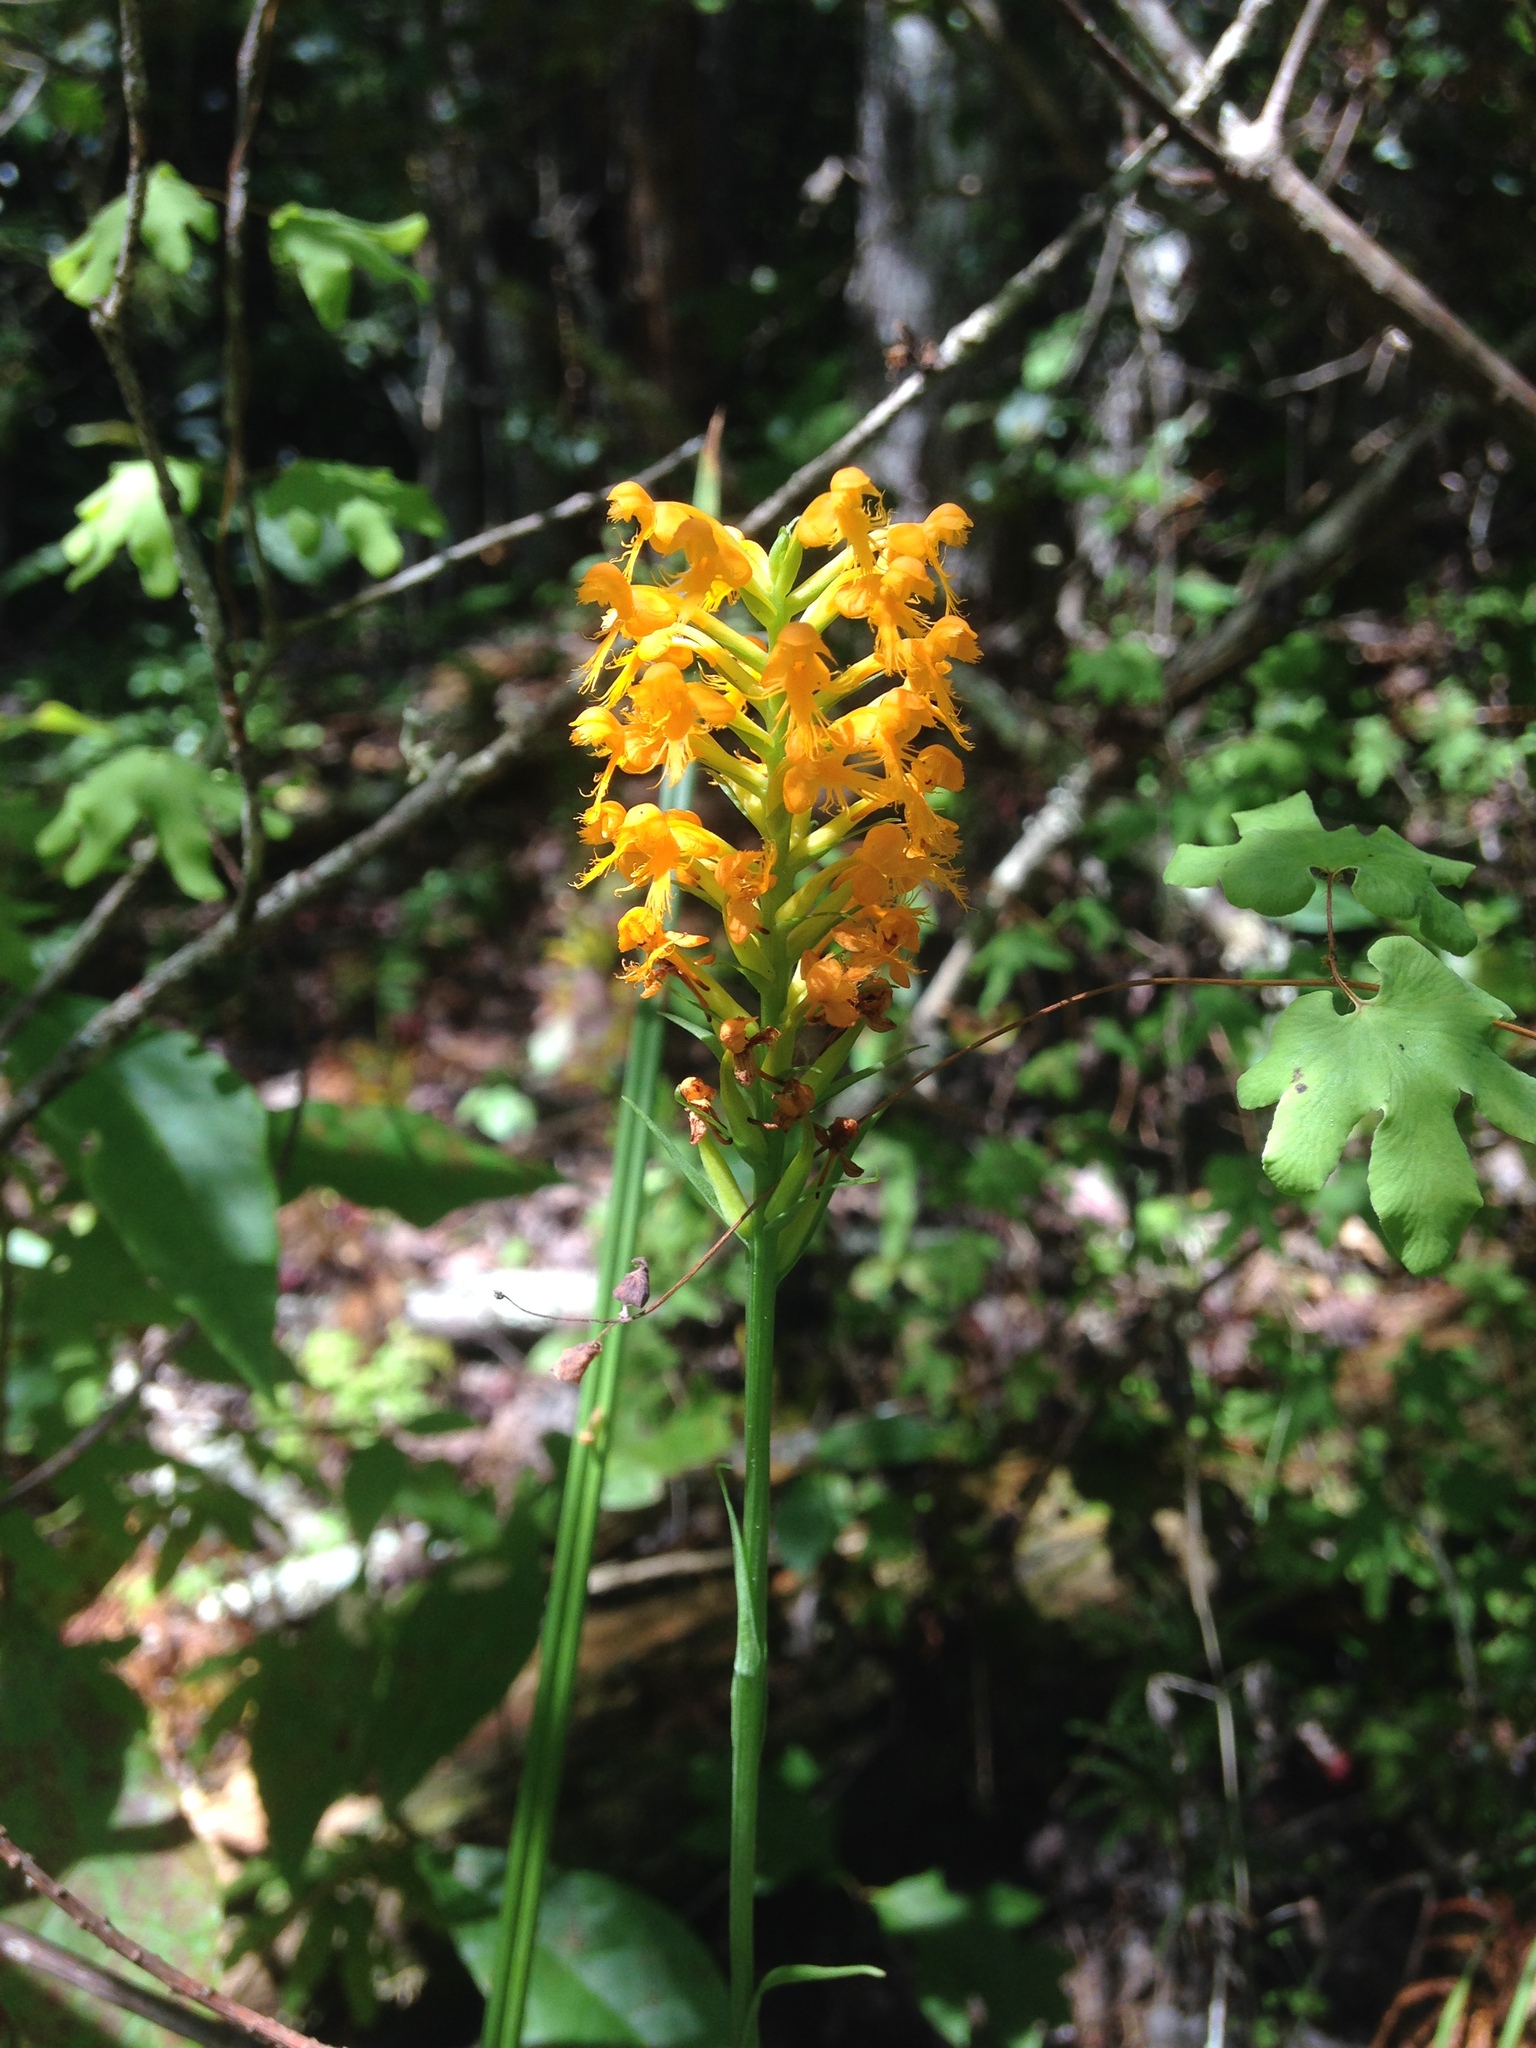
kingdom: Plantae
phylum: Tracheophyta
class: Liliopsida
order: Asparagales
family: Orchidaceae
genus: Platanthera
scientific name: Platanthera cristata
